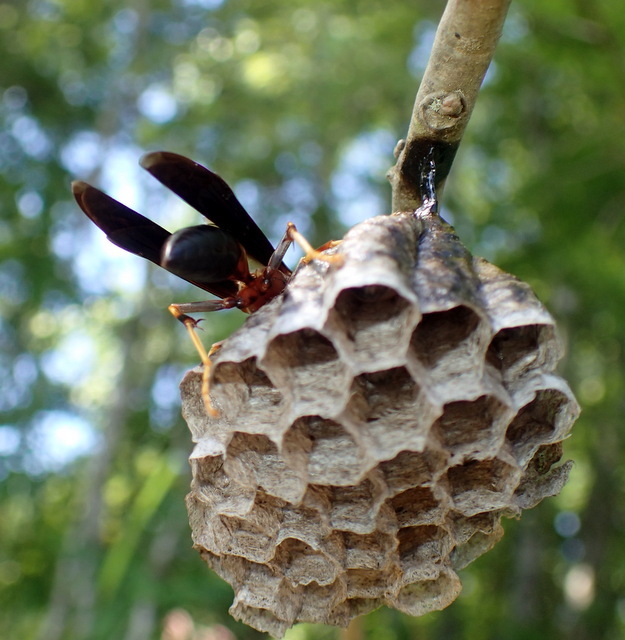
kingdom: Animalia
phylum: Arthropoda
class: Insecta
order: Hymenoptera
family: Eumenidae
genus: Polistes
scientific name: Polistes annularis
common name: Ringed paper wasp
